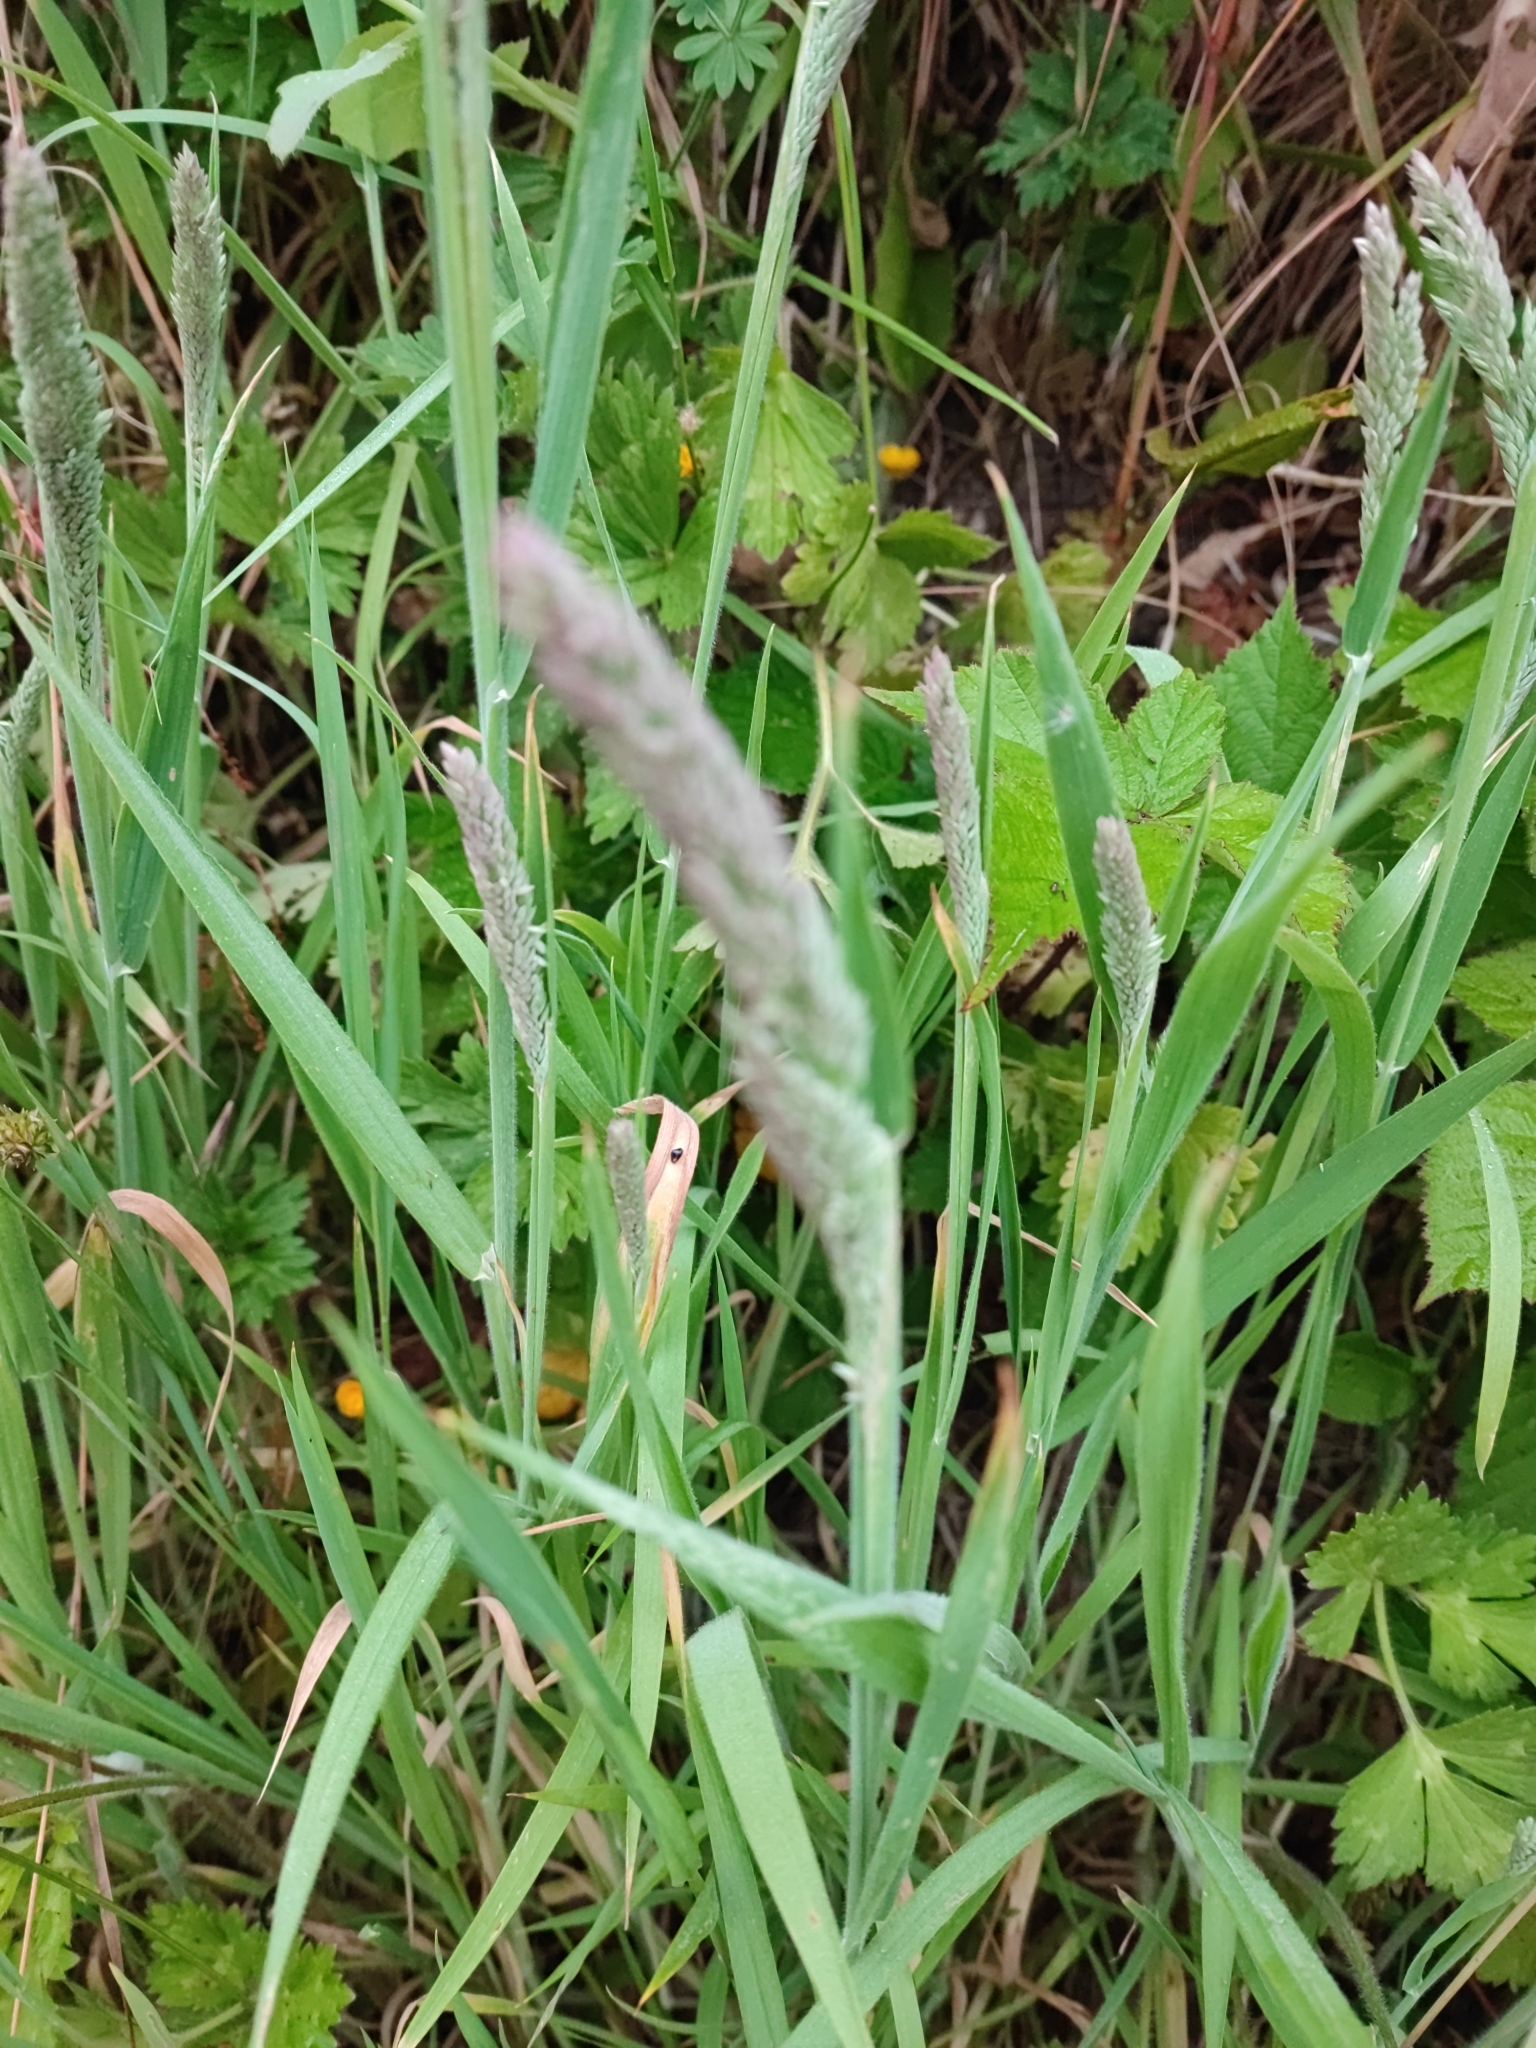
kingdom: Plantae
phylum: Tracheophyta
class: Liliopsida
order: Poales
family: Poaceae
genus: Holcus
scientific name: Holcus lanatus
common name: Yorkshire-fog
